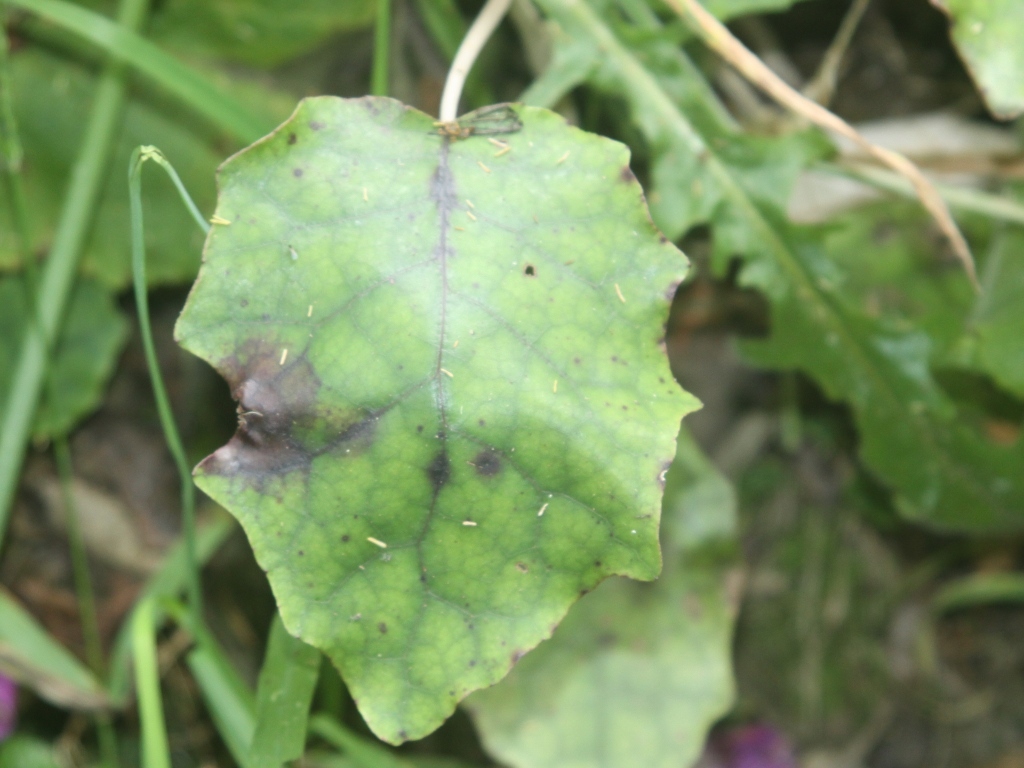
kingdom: Plantae
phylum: Tracheophyta
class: Magnoliopsida
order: Asterales
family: Asteraceae
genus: Brachyglottis
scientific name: Brachyglottis repanda
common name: Hedge ragwort
